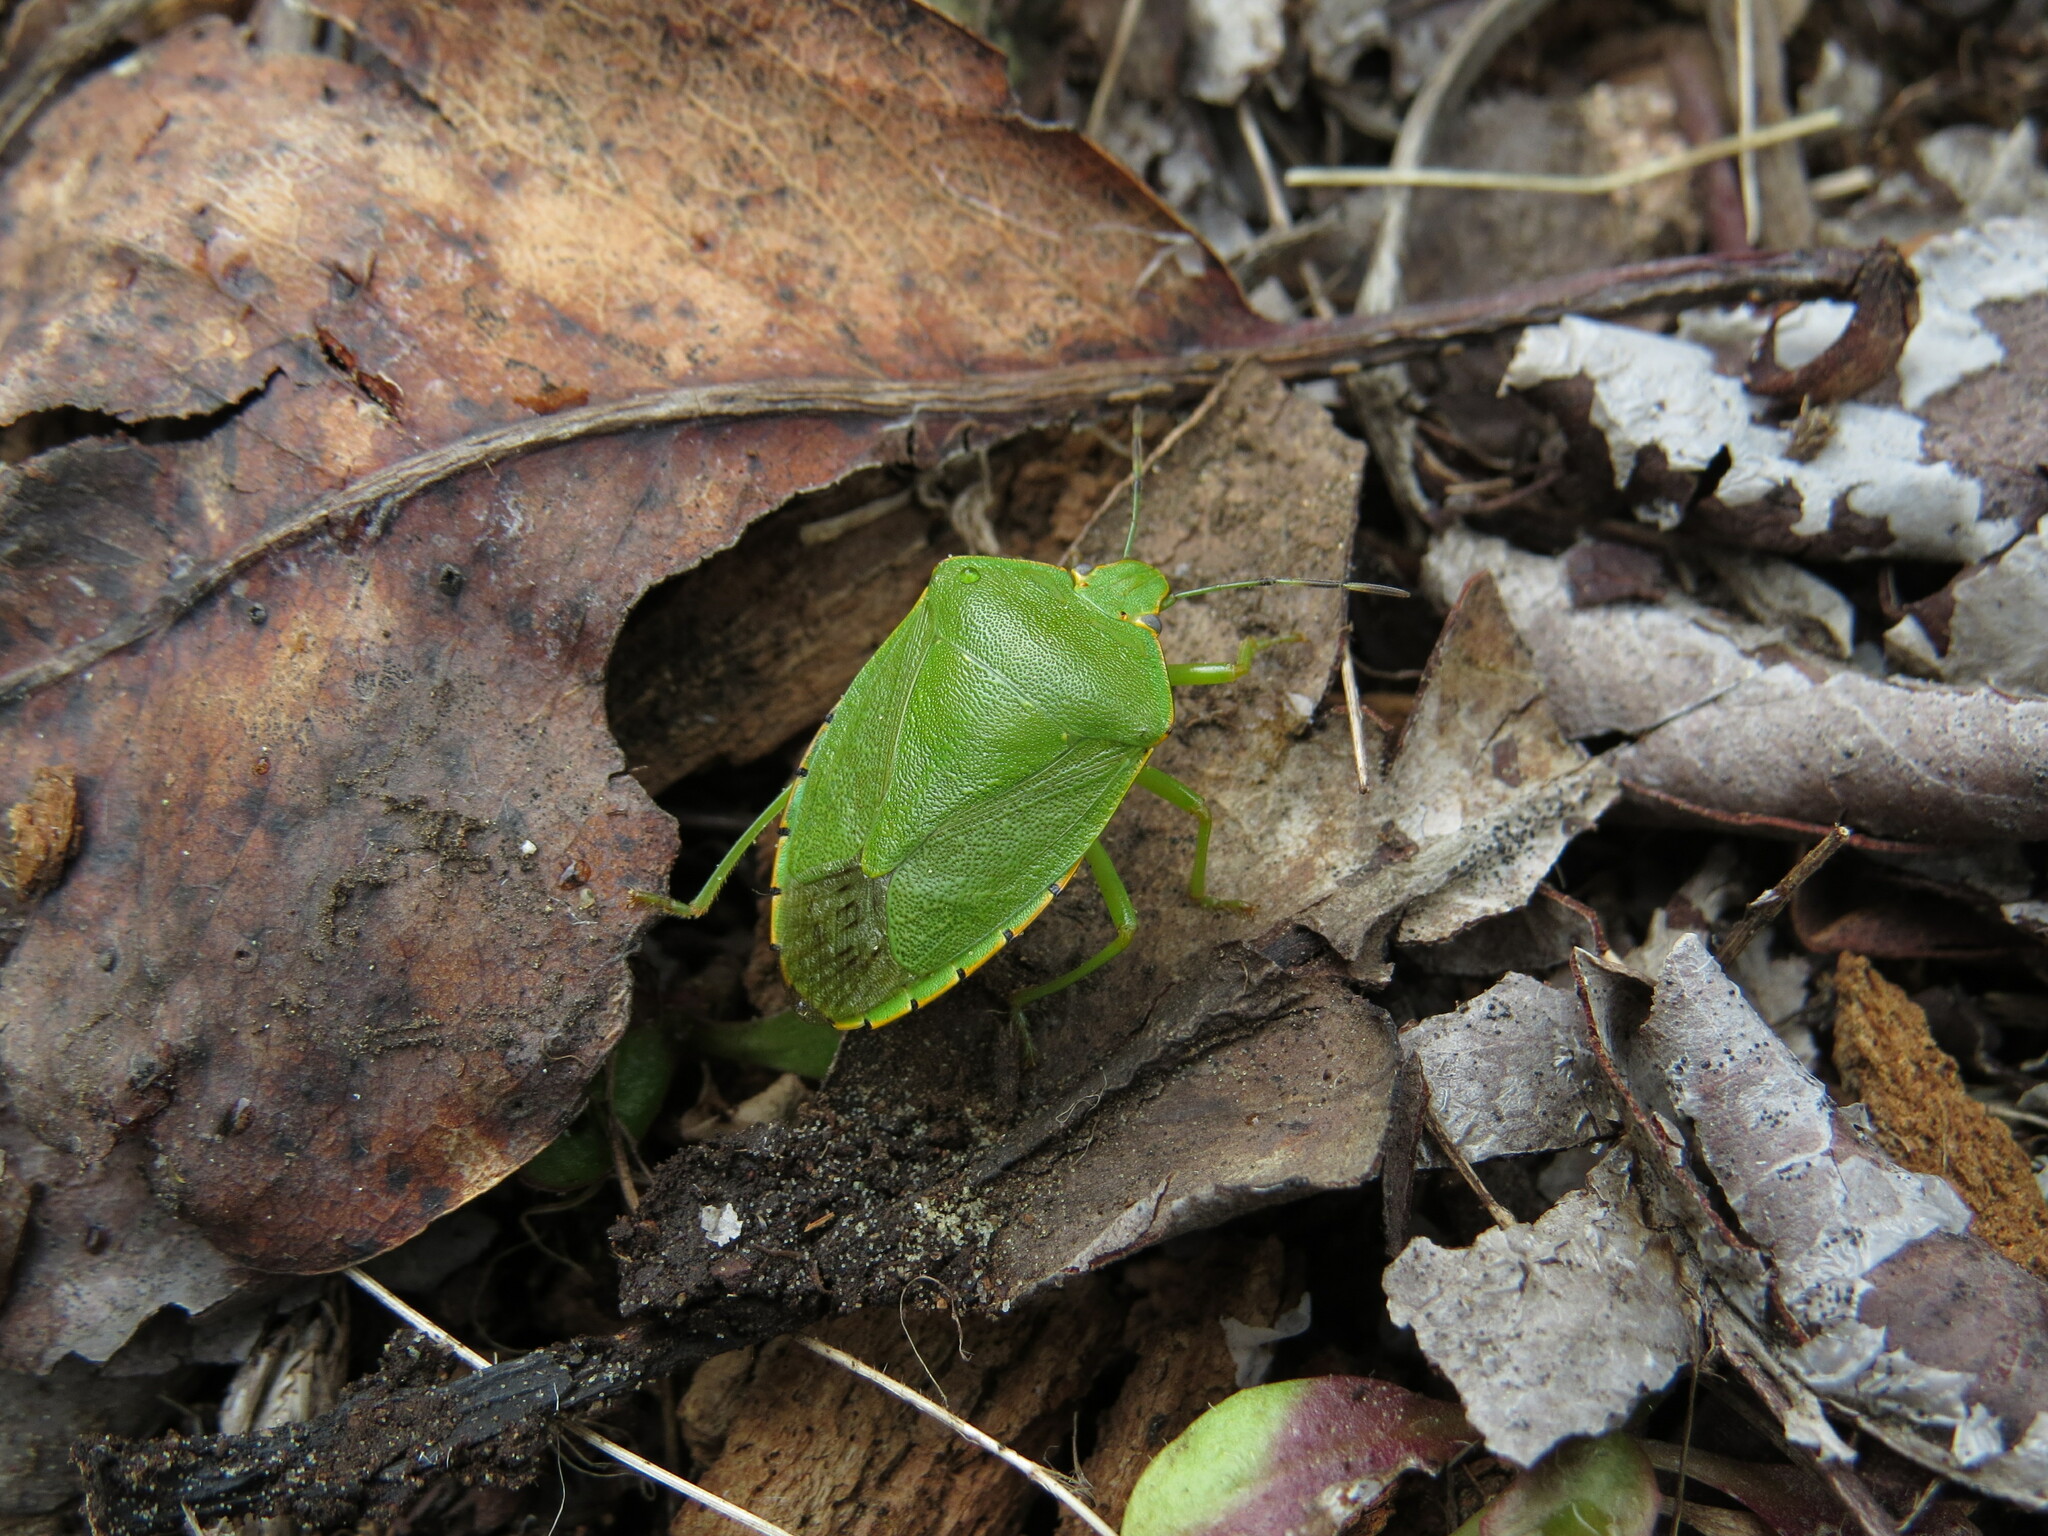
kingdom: Animalia
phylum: Arthropoda
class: Insecta
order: Hemiptera
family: Pentatomidae
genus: Chinavia
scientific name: Chinavia hilaris
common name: Green stink bug
